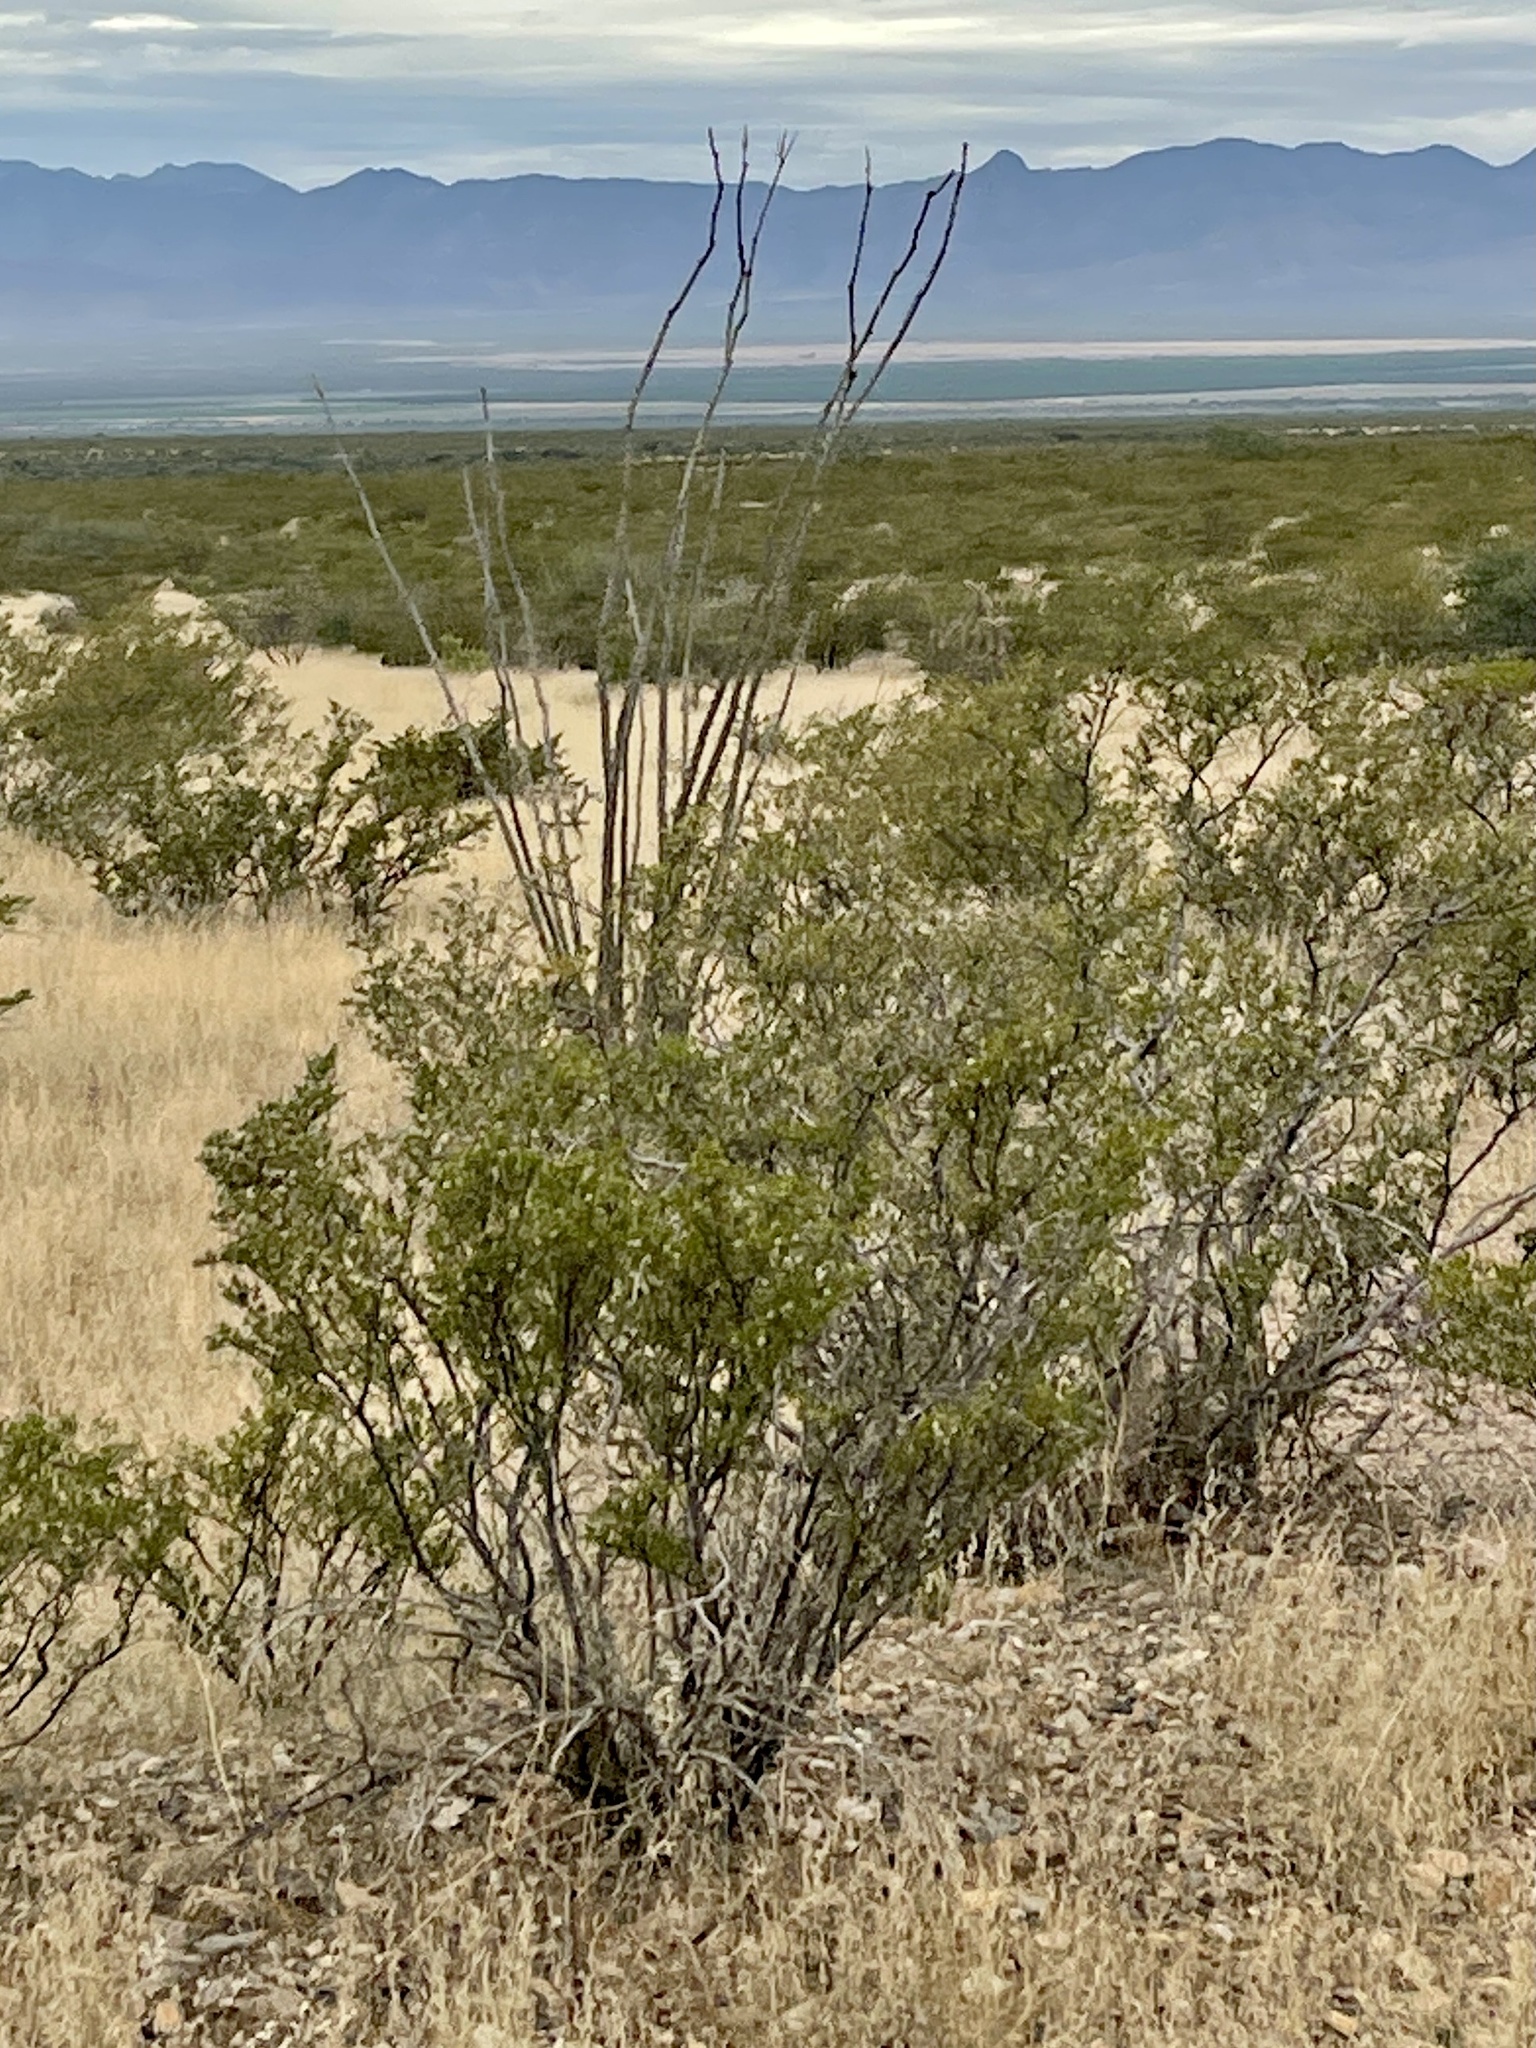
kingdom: Plantae
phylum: Tracheophyta
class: Magnoliopsida
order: Zygophyllales
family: Zygophyllaceae
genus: Larrea
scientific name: Larrea tridentata
